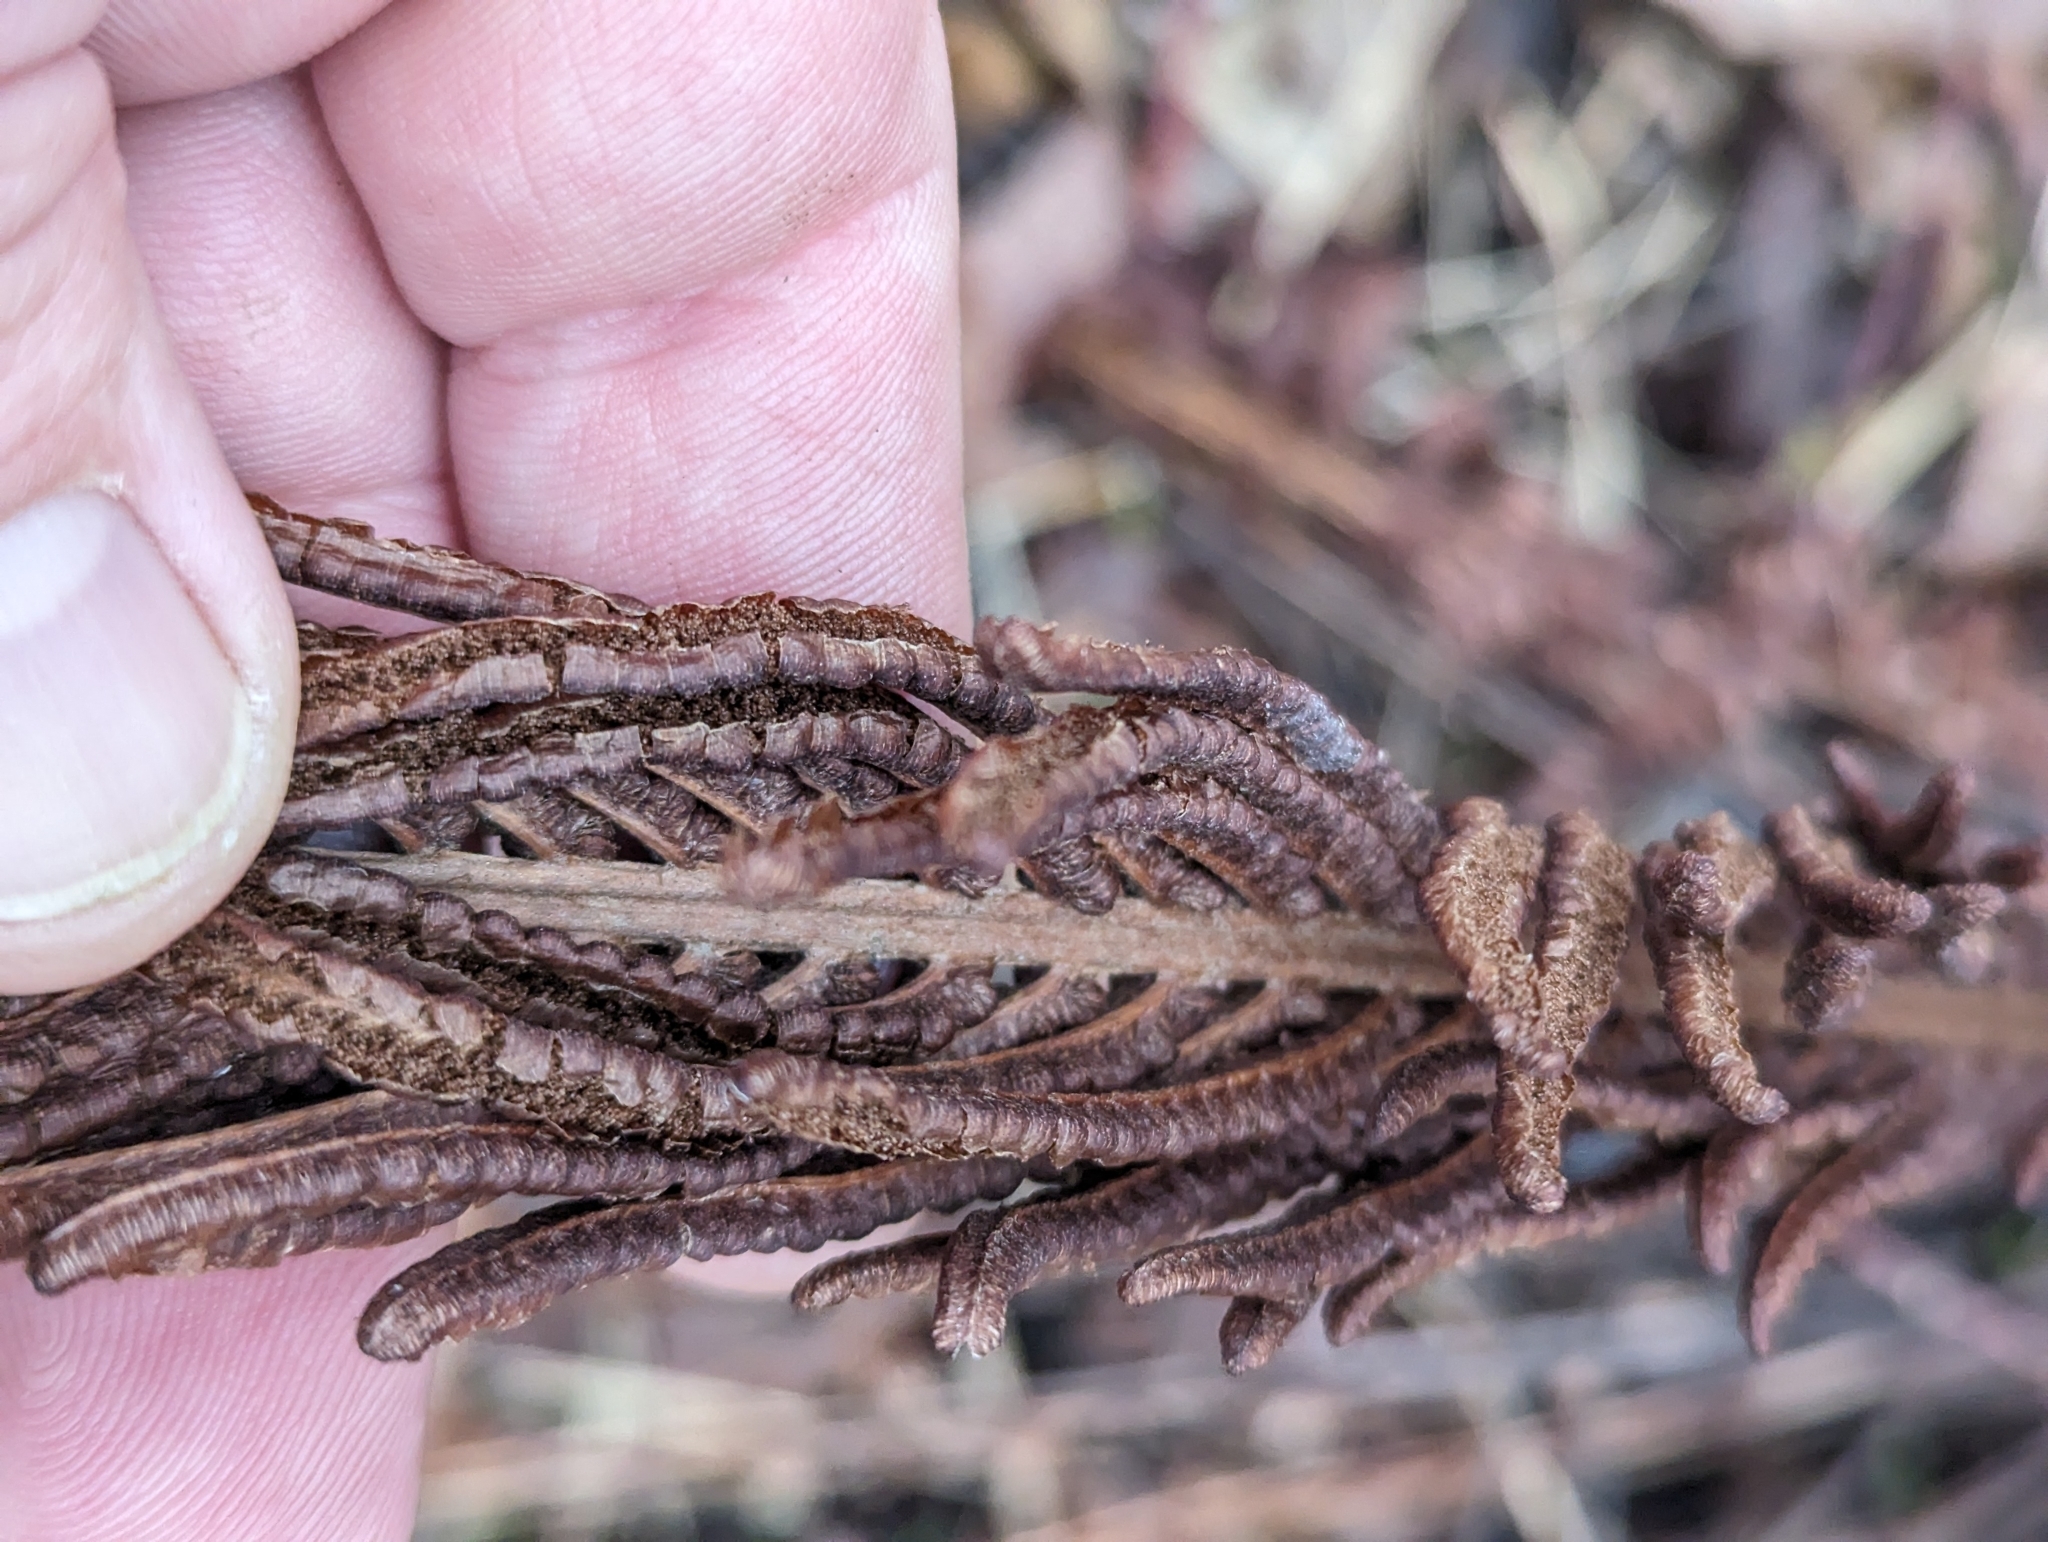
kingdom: Plantae
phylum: Tracheophyta
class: Polypodiopsida
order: Polypodiales
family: Onocleaceae
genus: Matteuccia
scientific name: Matteuccia struthiopteris
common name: Ostrich fern
